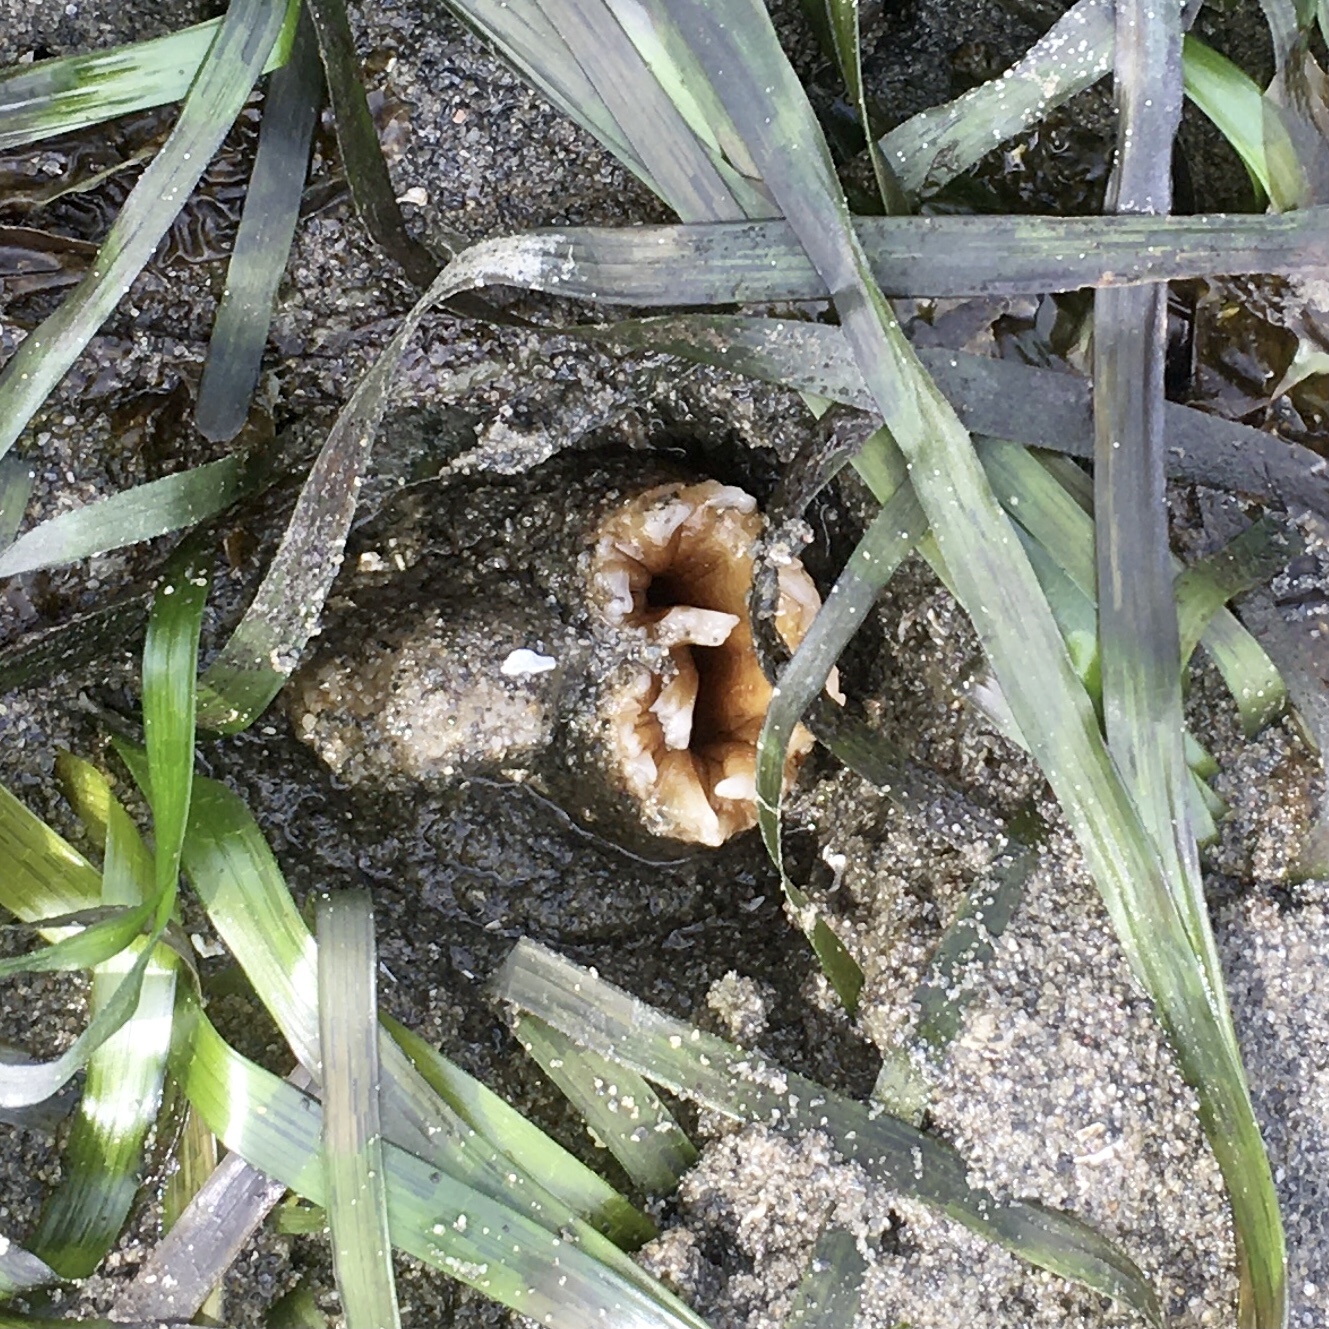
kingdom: Animalia
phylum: Mollusca
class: Bivalvia
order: Myida
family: Pholadidae
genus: Zirfaea
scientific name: Zirfaea pilsbryi
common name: Rough piddock
